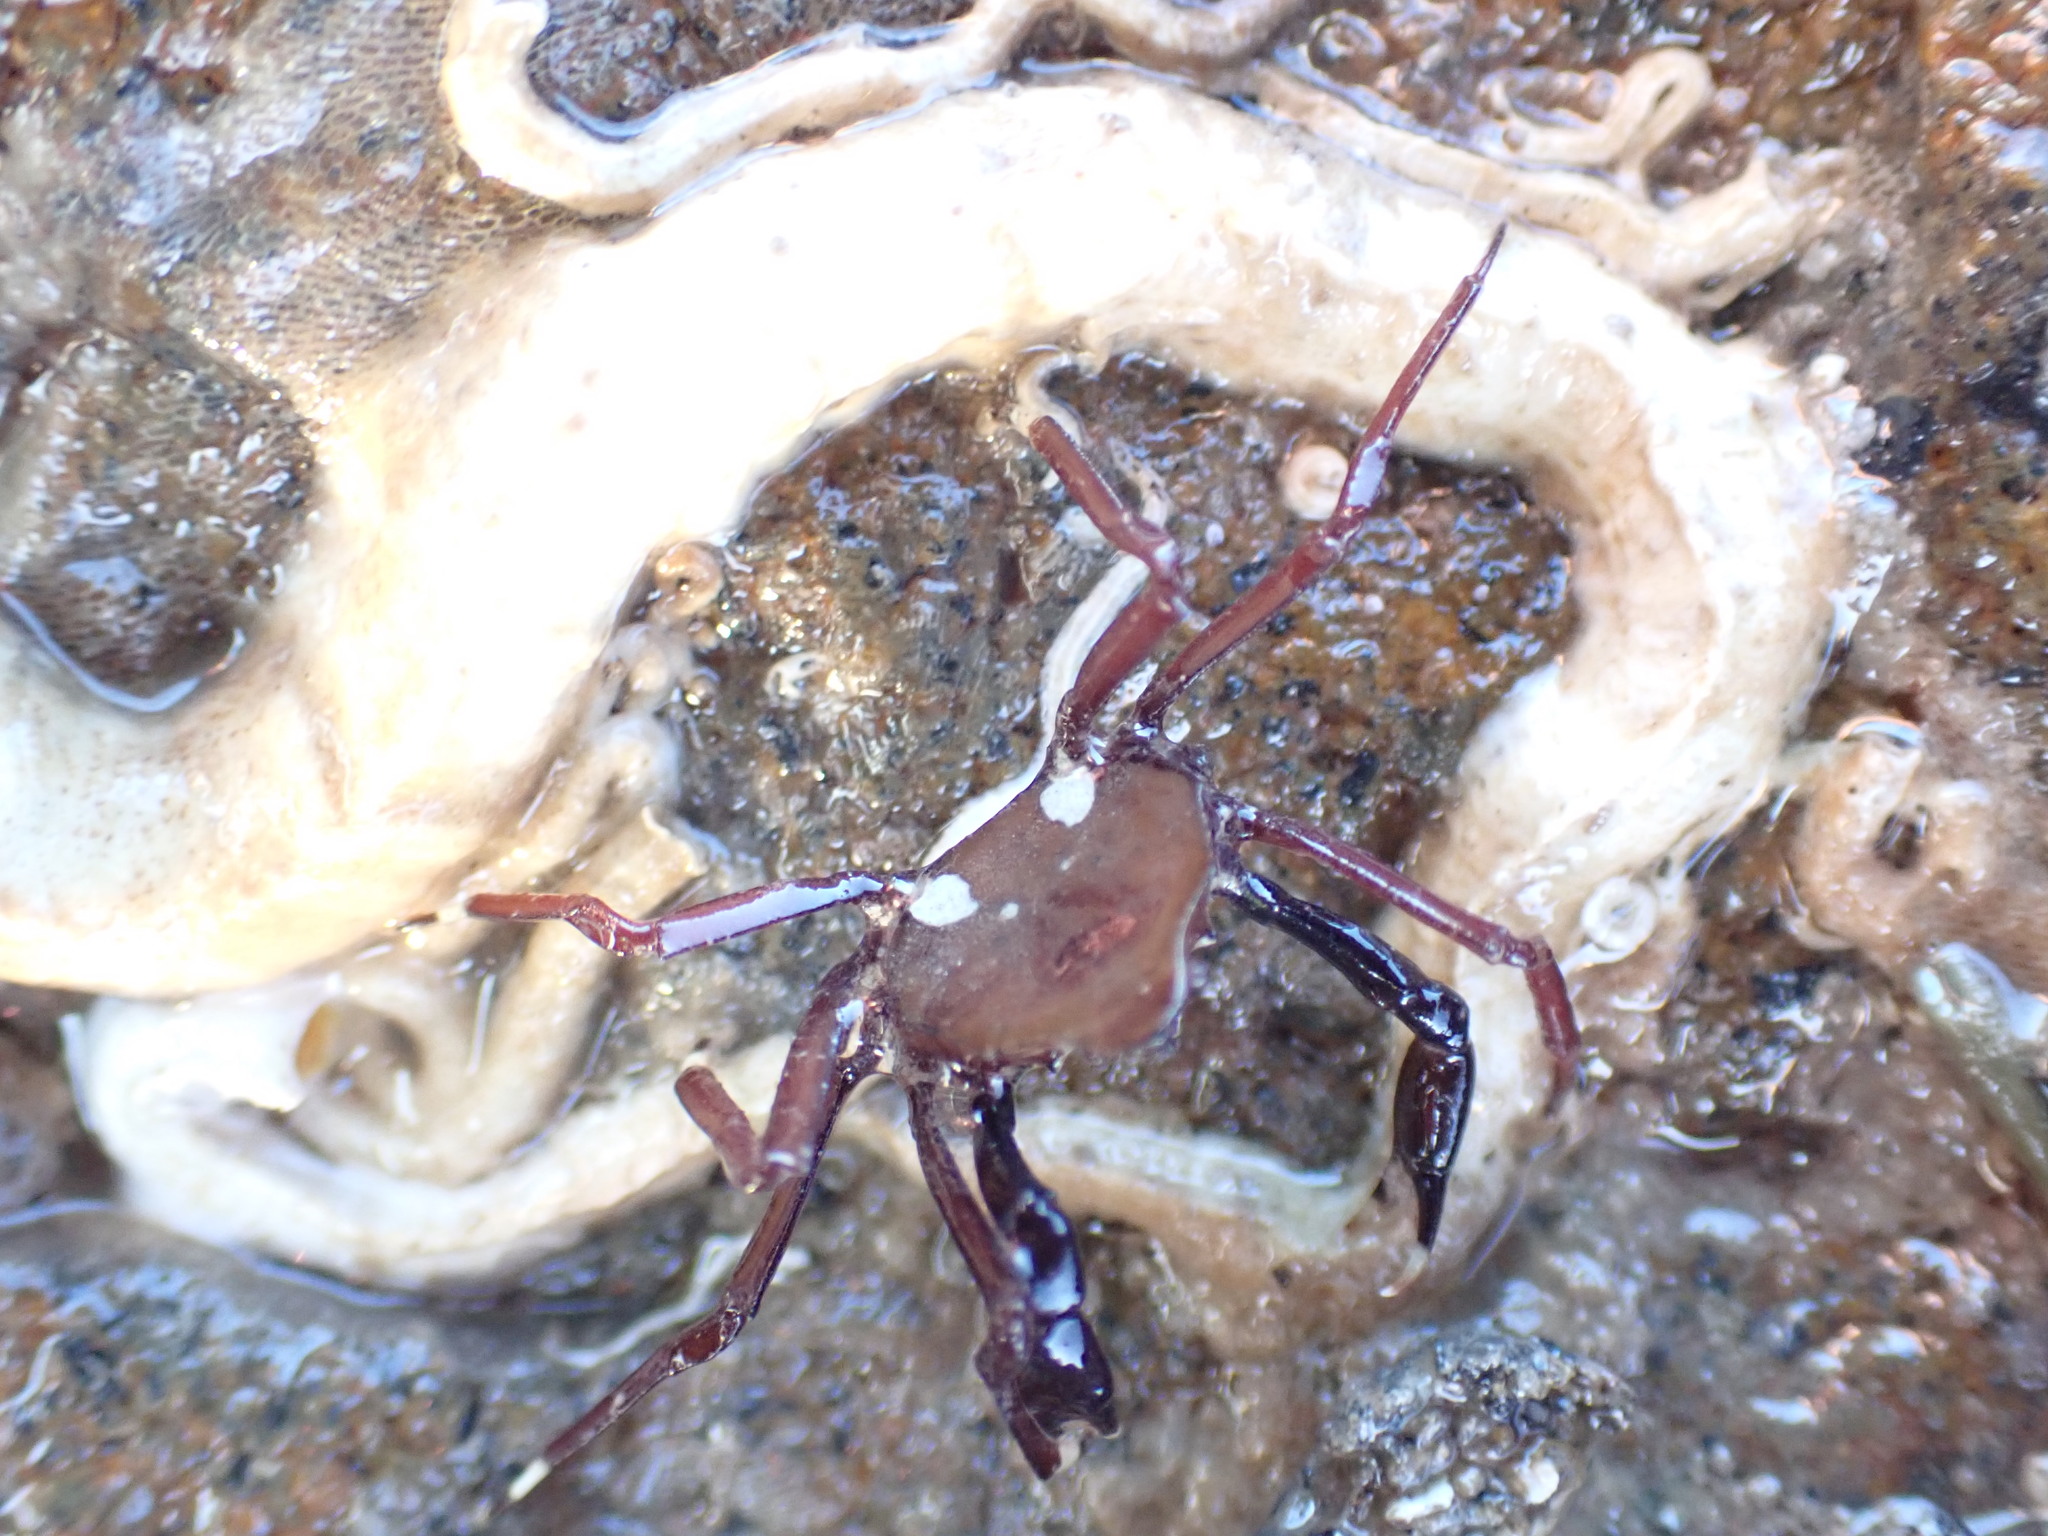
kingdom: Animalia
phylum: Arthropoda
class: Malacostraca
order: Decapoda
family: Hymenosomatidae
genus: Elamena
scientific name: Elamena producta
